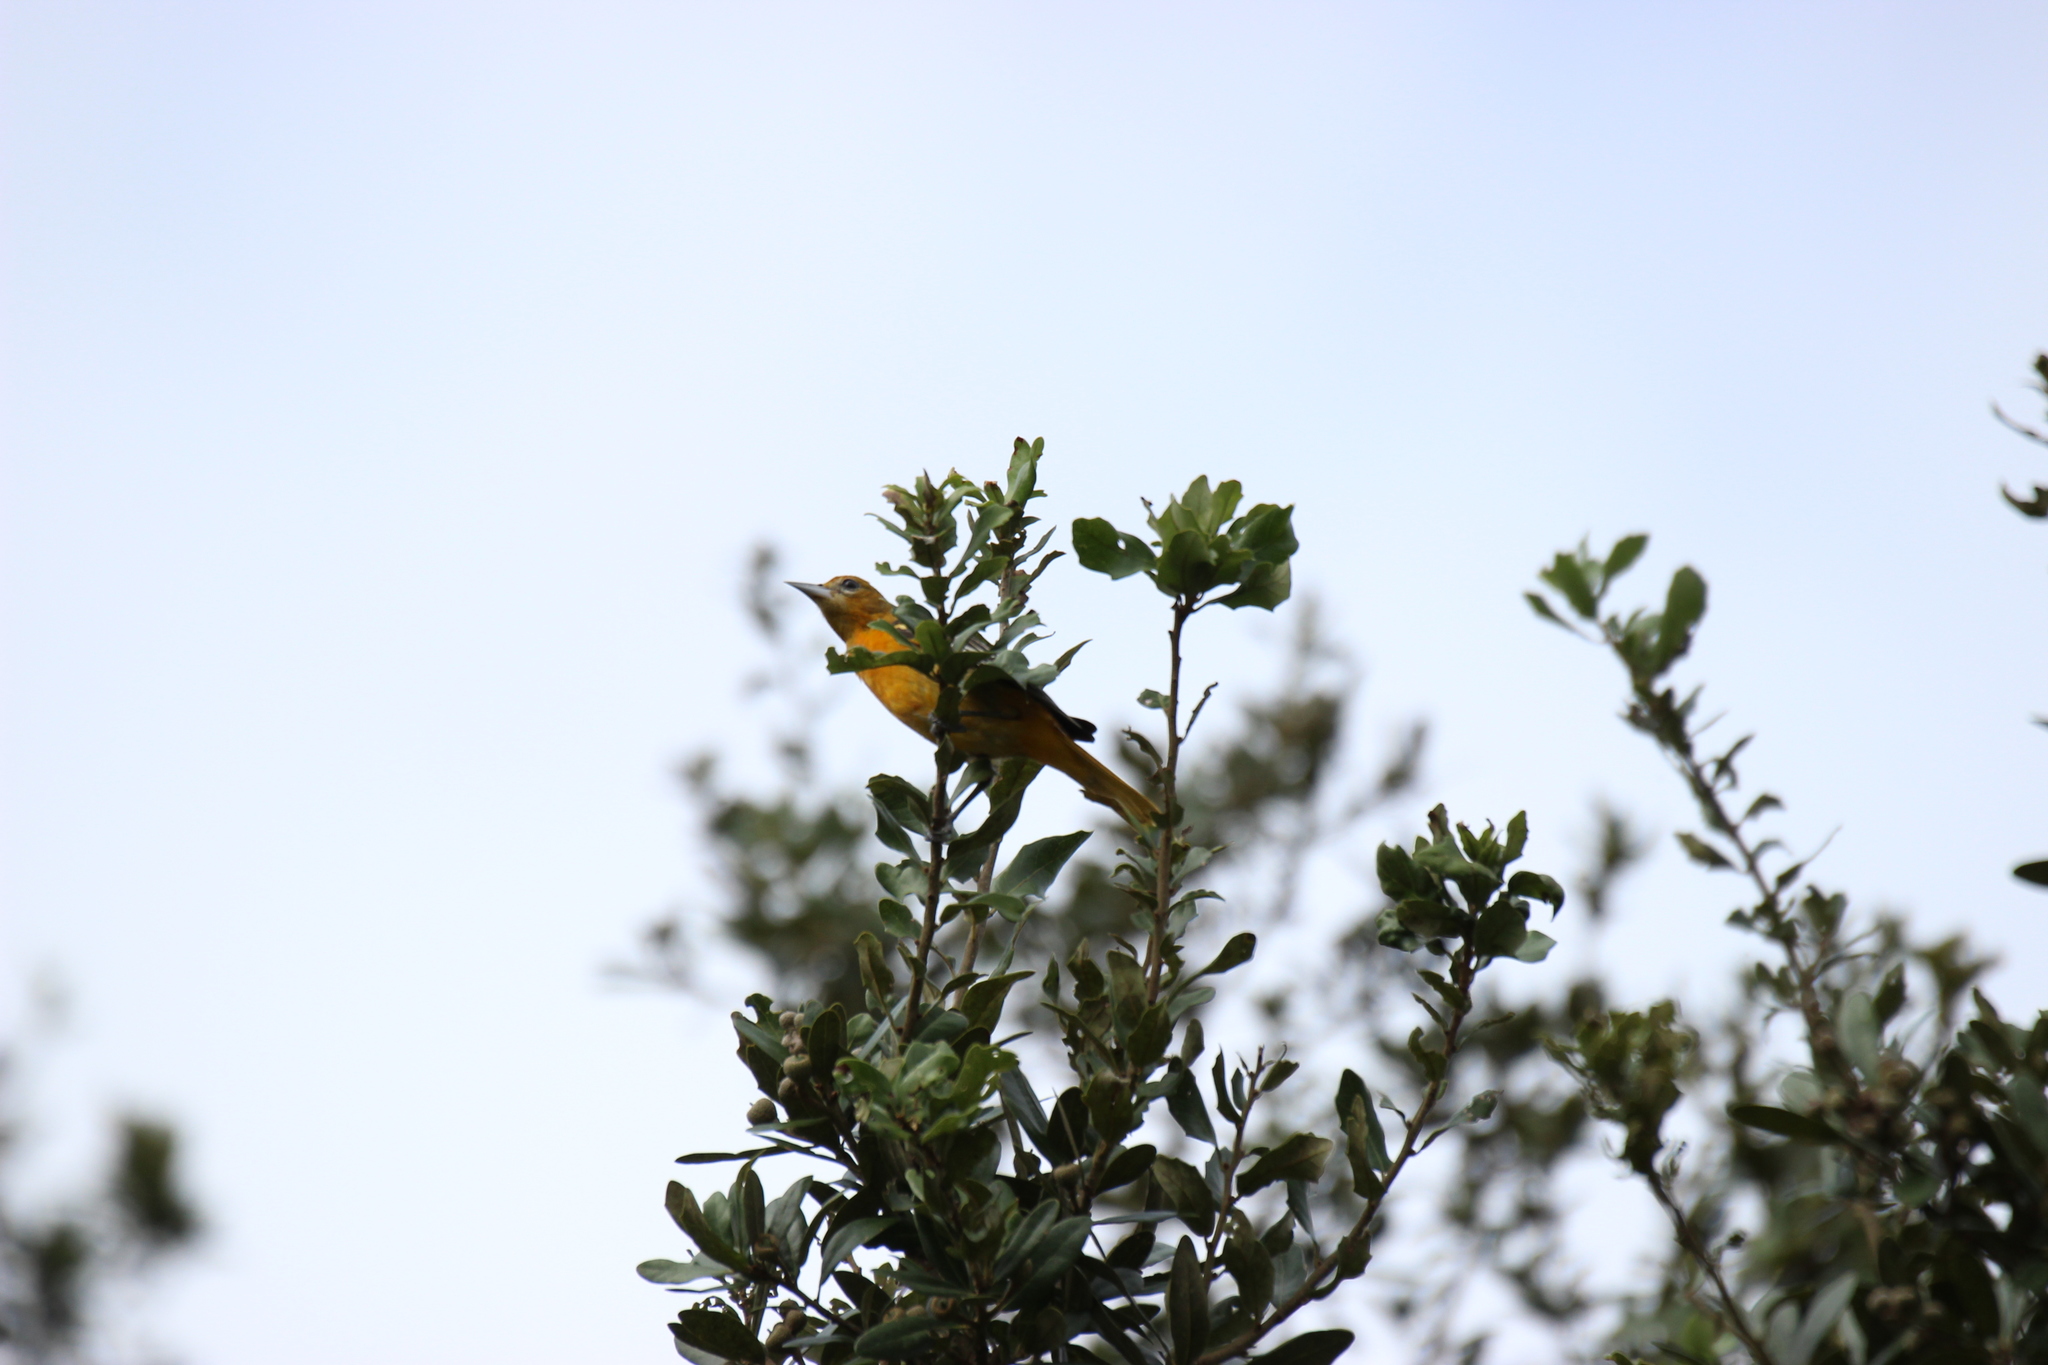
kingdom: Animalia
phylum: Chordata
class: Aves
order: Passeriformes
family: Icteridae
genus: Icterus
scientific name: Icterus galbula
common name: Baltimore oriole
